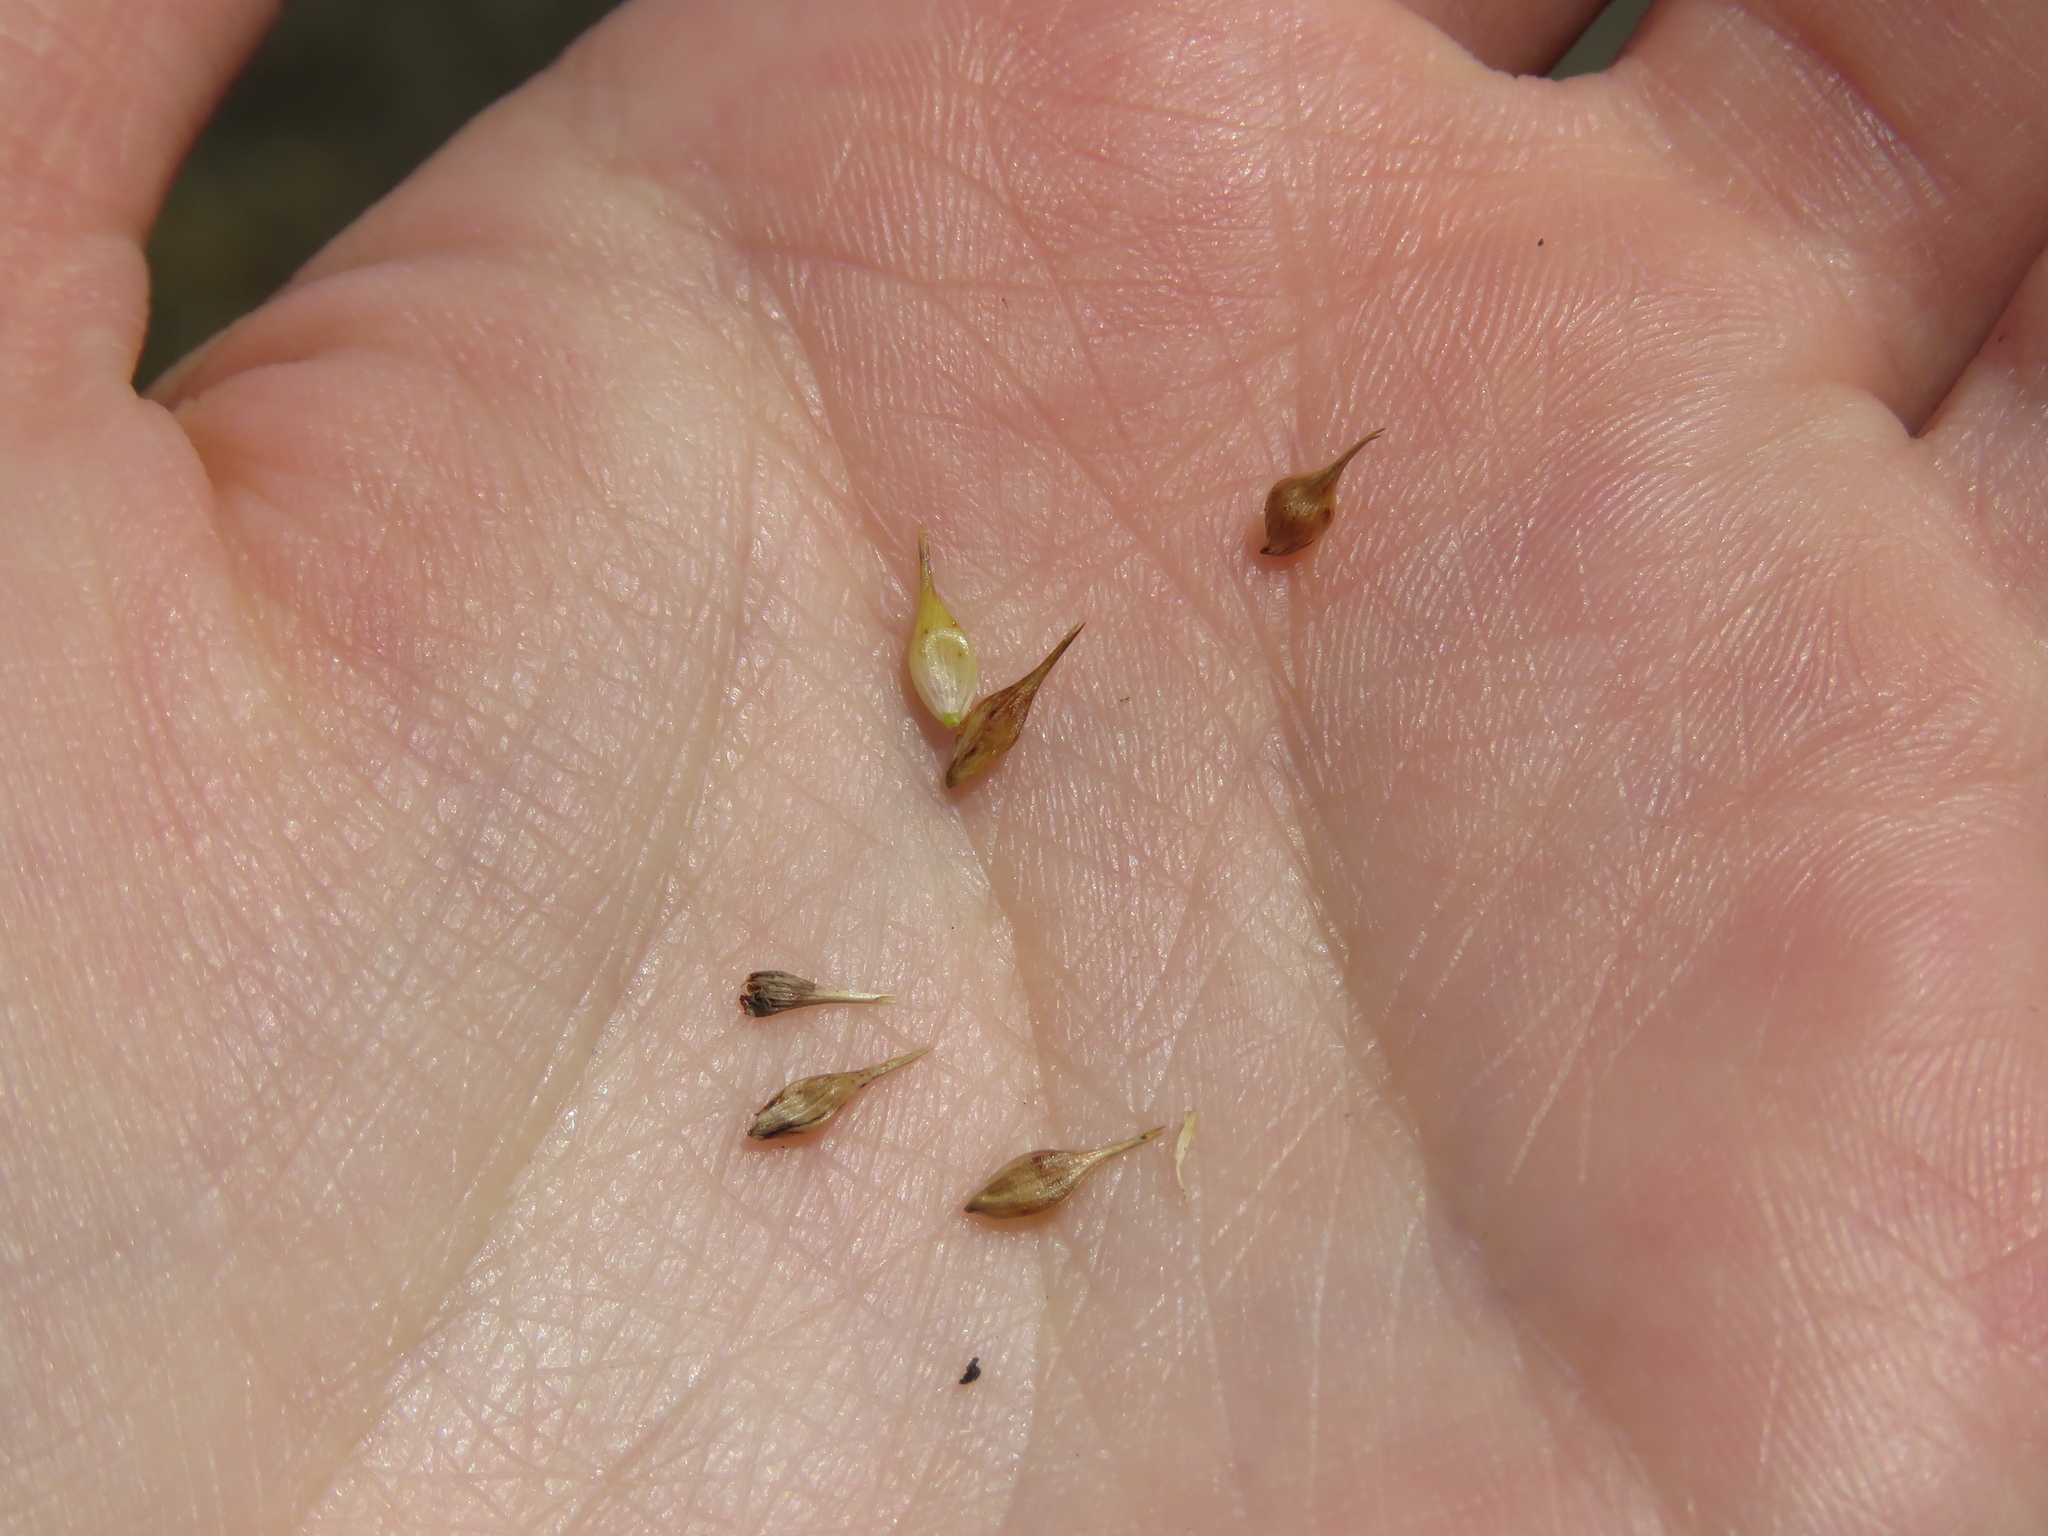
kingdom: Plantae
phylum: Tracheophyta
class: Liliopsida
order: Poales
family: Cyperaceae
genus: Carex
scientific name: Carex hystericina
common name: Bottlebrush sedge
